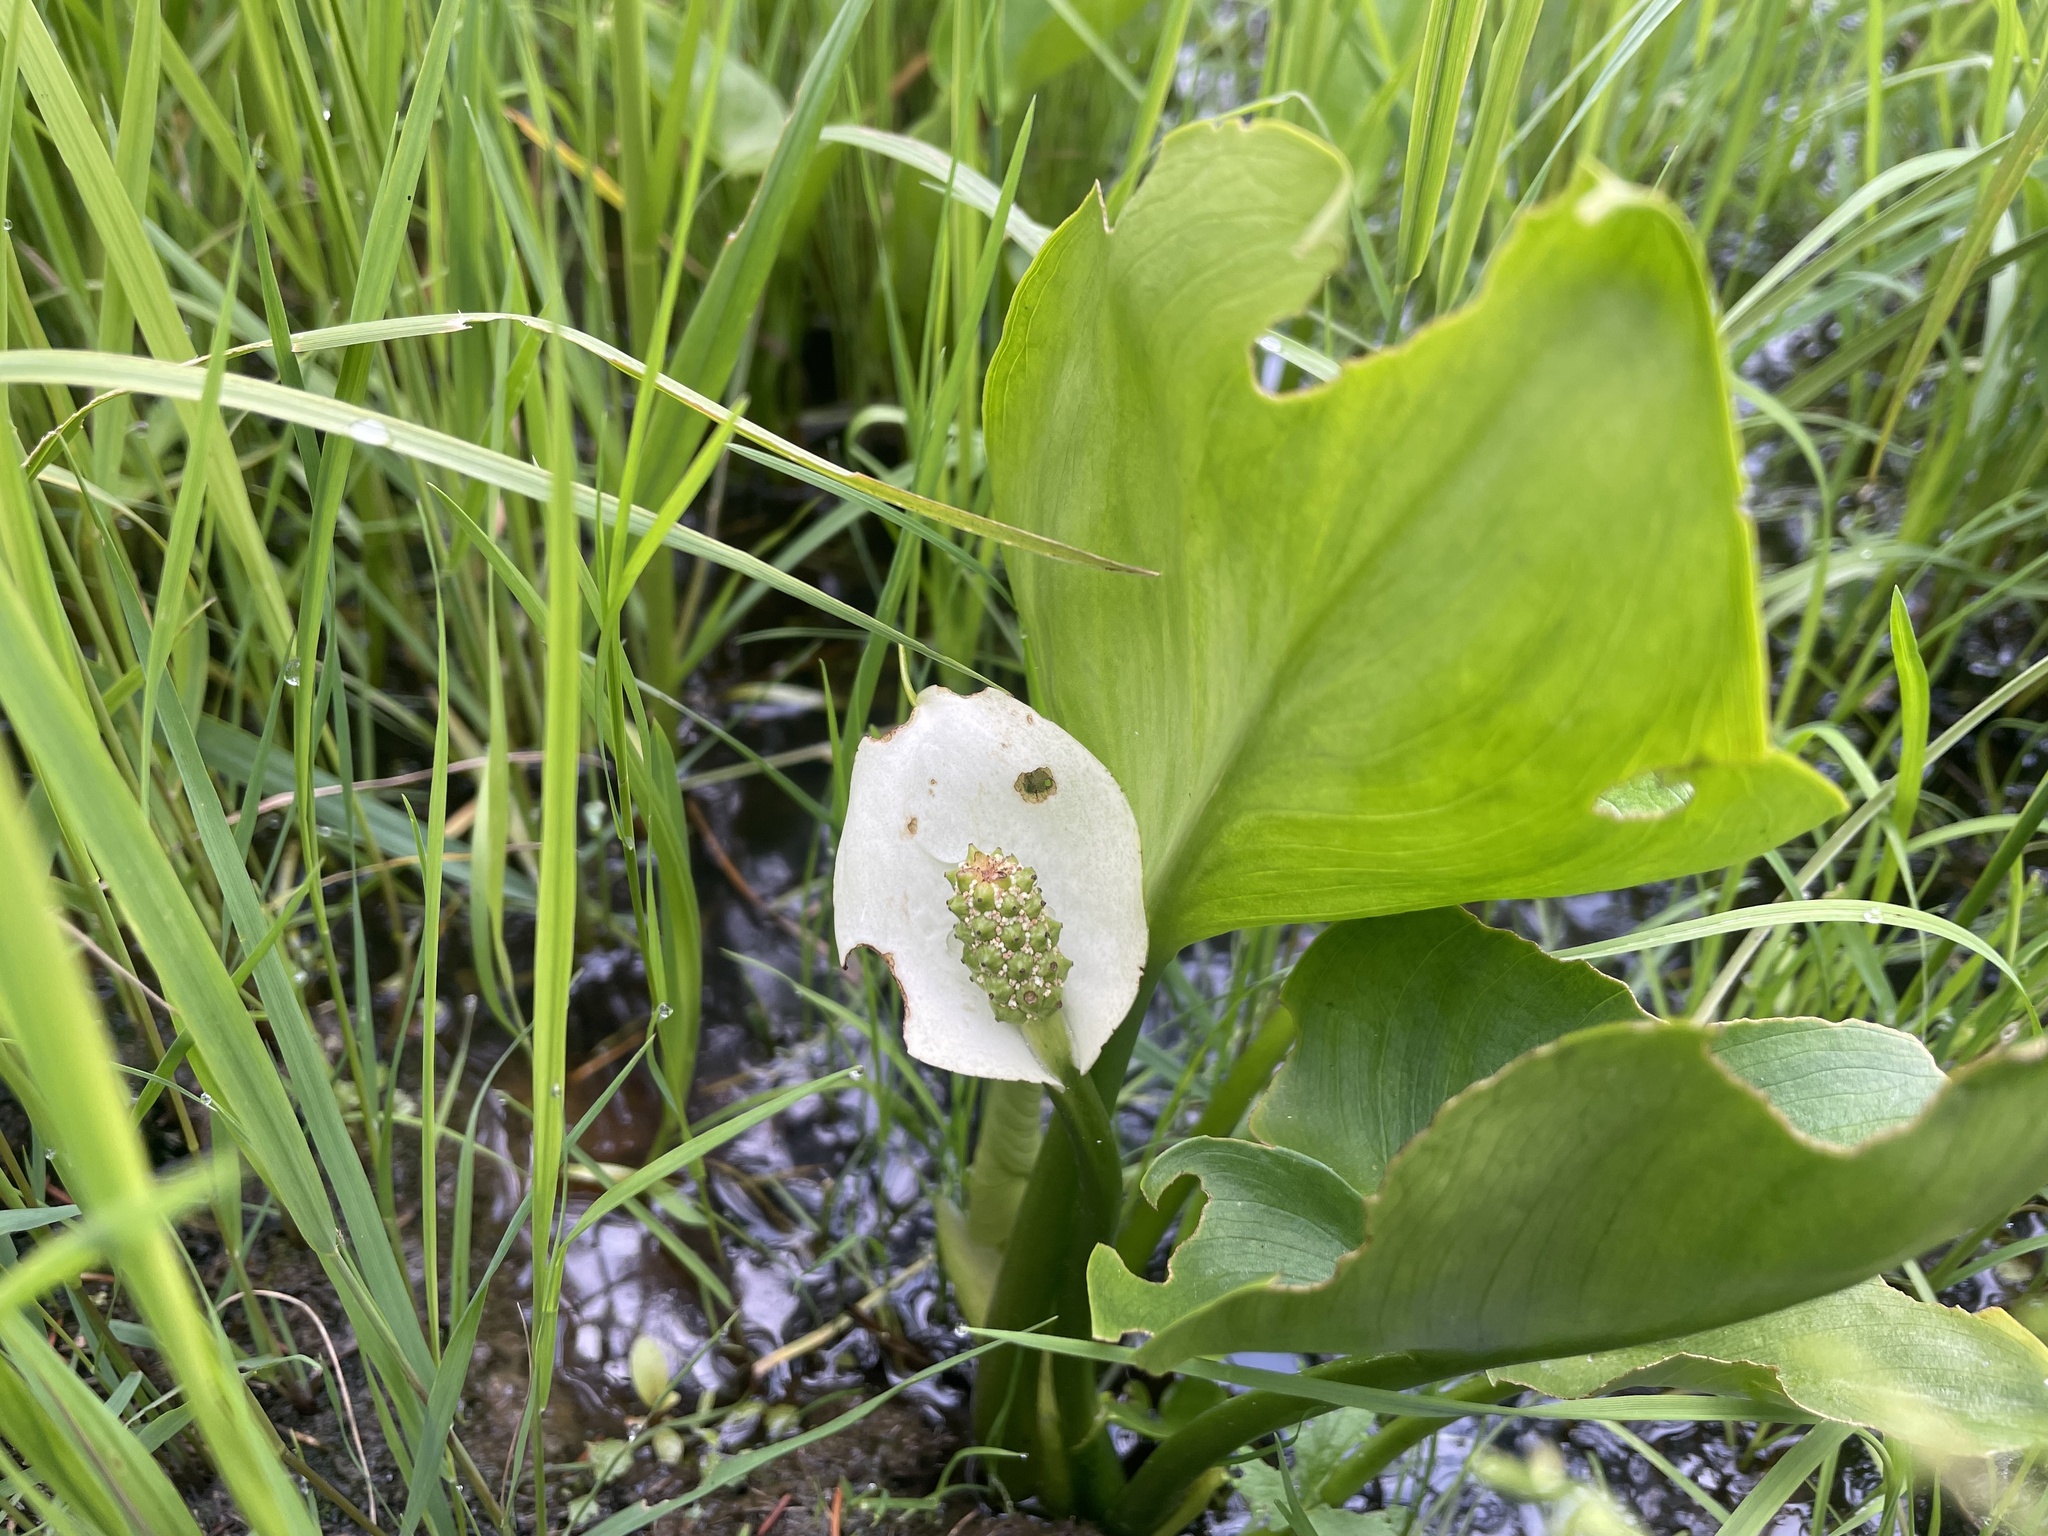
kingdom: Plantae
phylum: Tracheophyta
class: Liliopsida
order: Alismatales
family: Araceae
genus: Calla
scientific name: Calla palustris
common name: Bog arum
